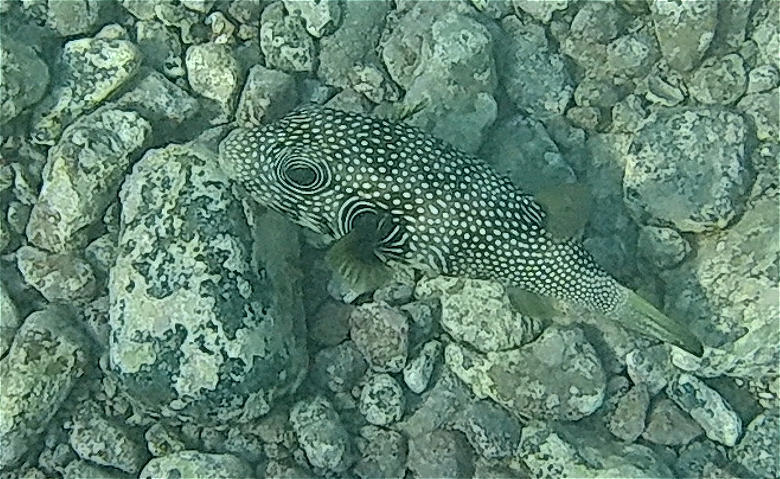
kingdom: Animalia
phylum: Chordata
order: Tetraodontiformes
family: Tetraodontidae
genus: Arothron
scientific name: Arothron hispidus
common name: Stripebelly puffer
